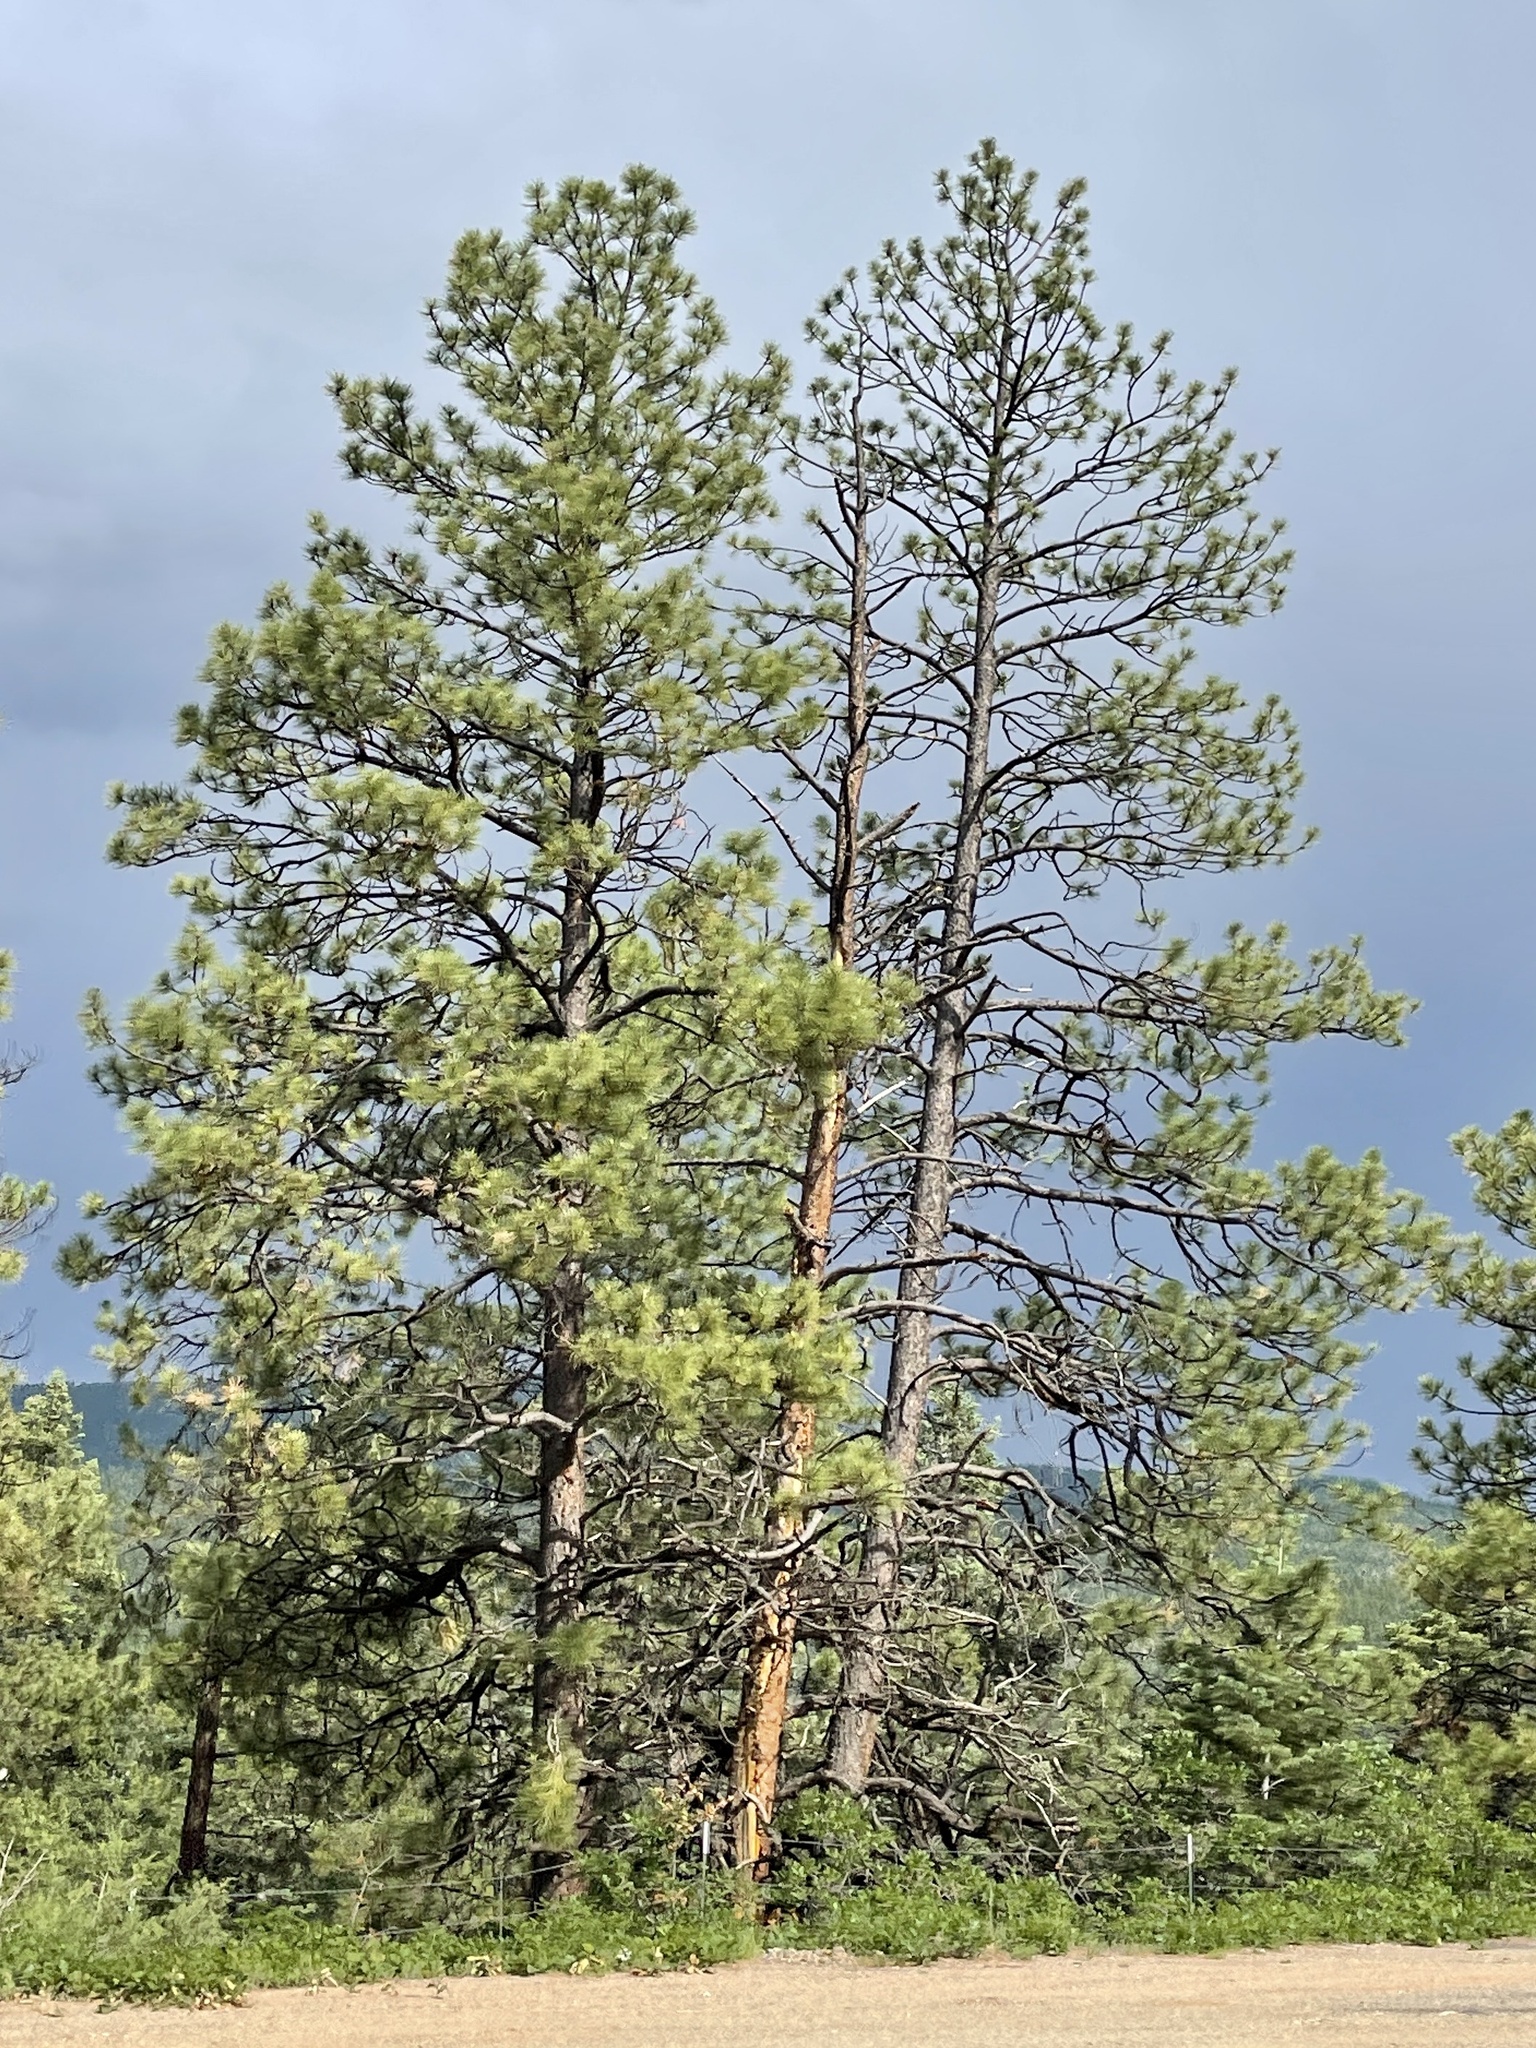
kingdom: Plantae
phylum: Tracheophyta
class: Pinopsida
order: Pinales
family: Pinaceae
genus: Pinus
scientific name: Pinus ponderosa
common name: Western yellow-pine
